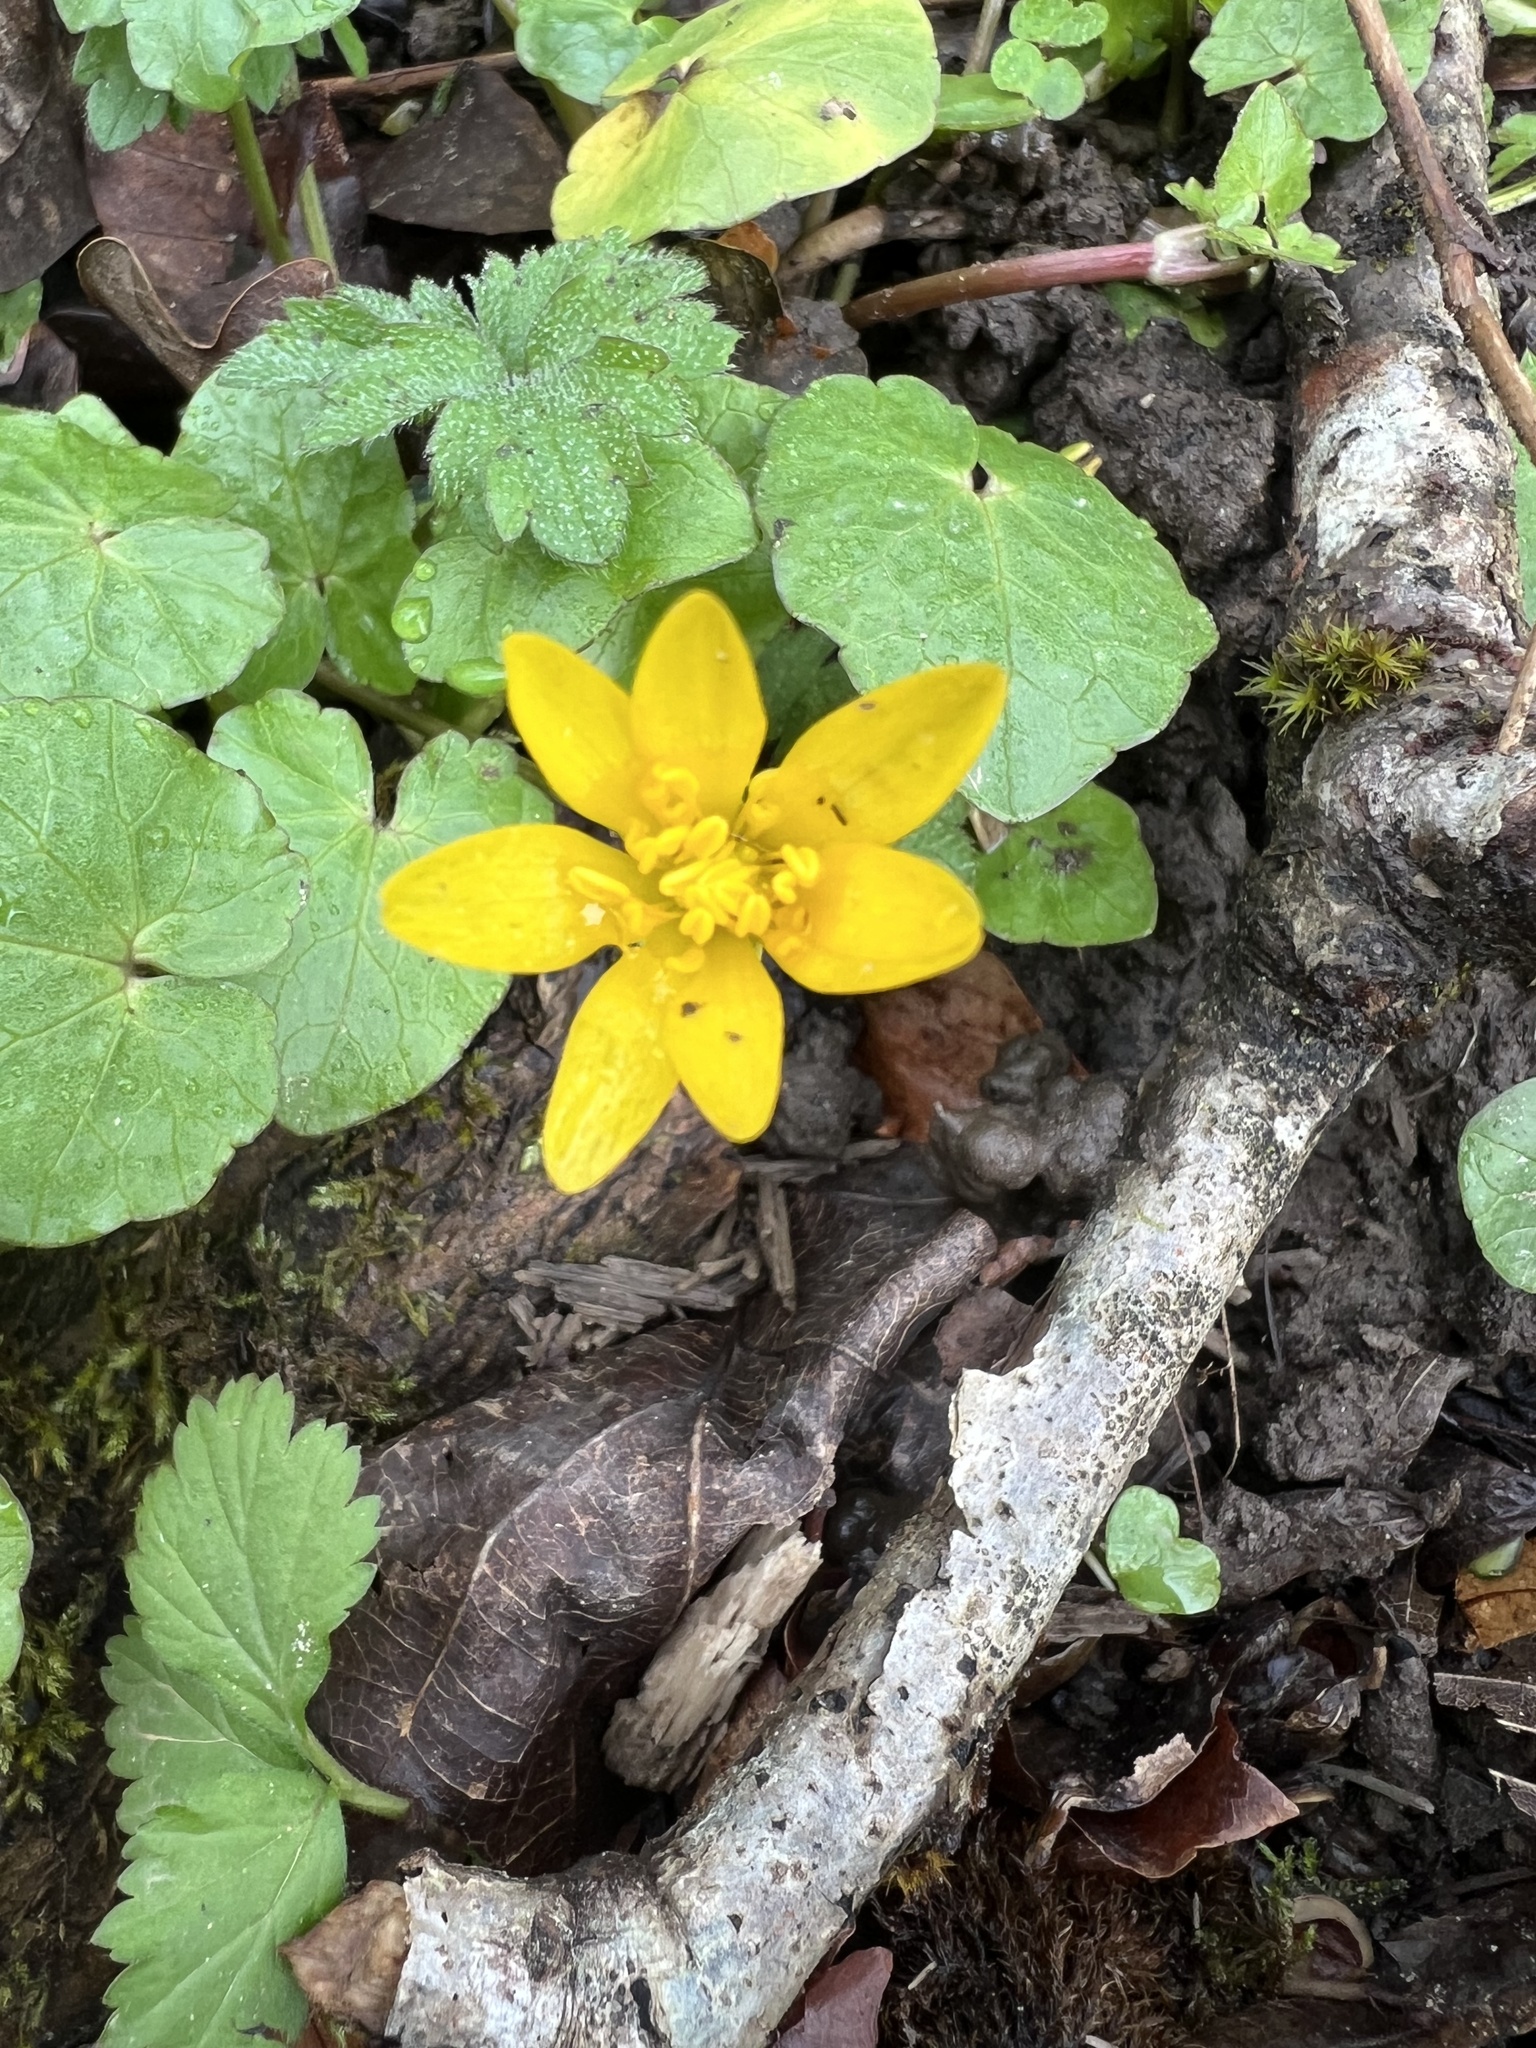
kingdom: Plantae
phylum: Tracheophyta
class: Magnoliopsida
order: Ranunculales
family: Ranunculaceae
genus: Ficaria
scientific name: Ficaria verna
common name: Lesser celandine
